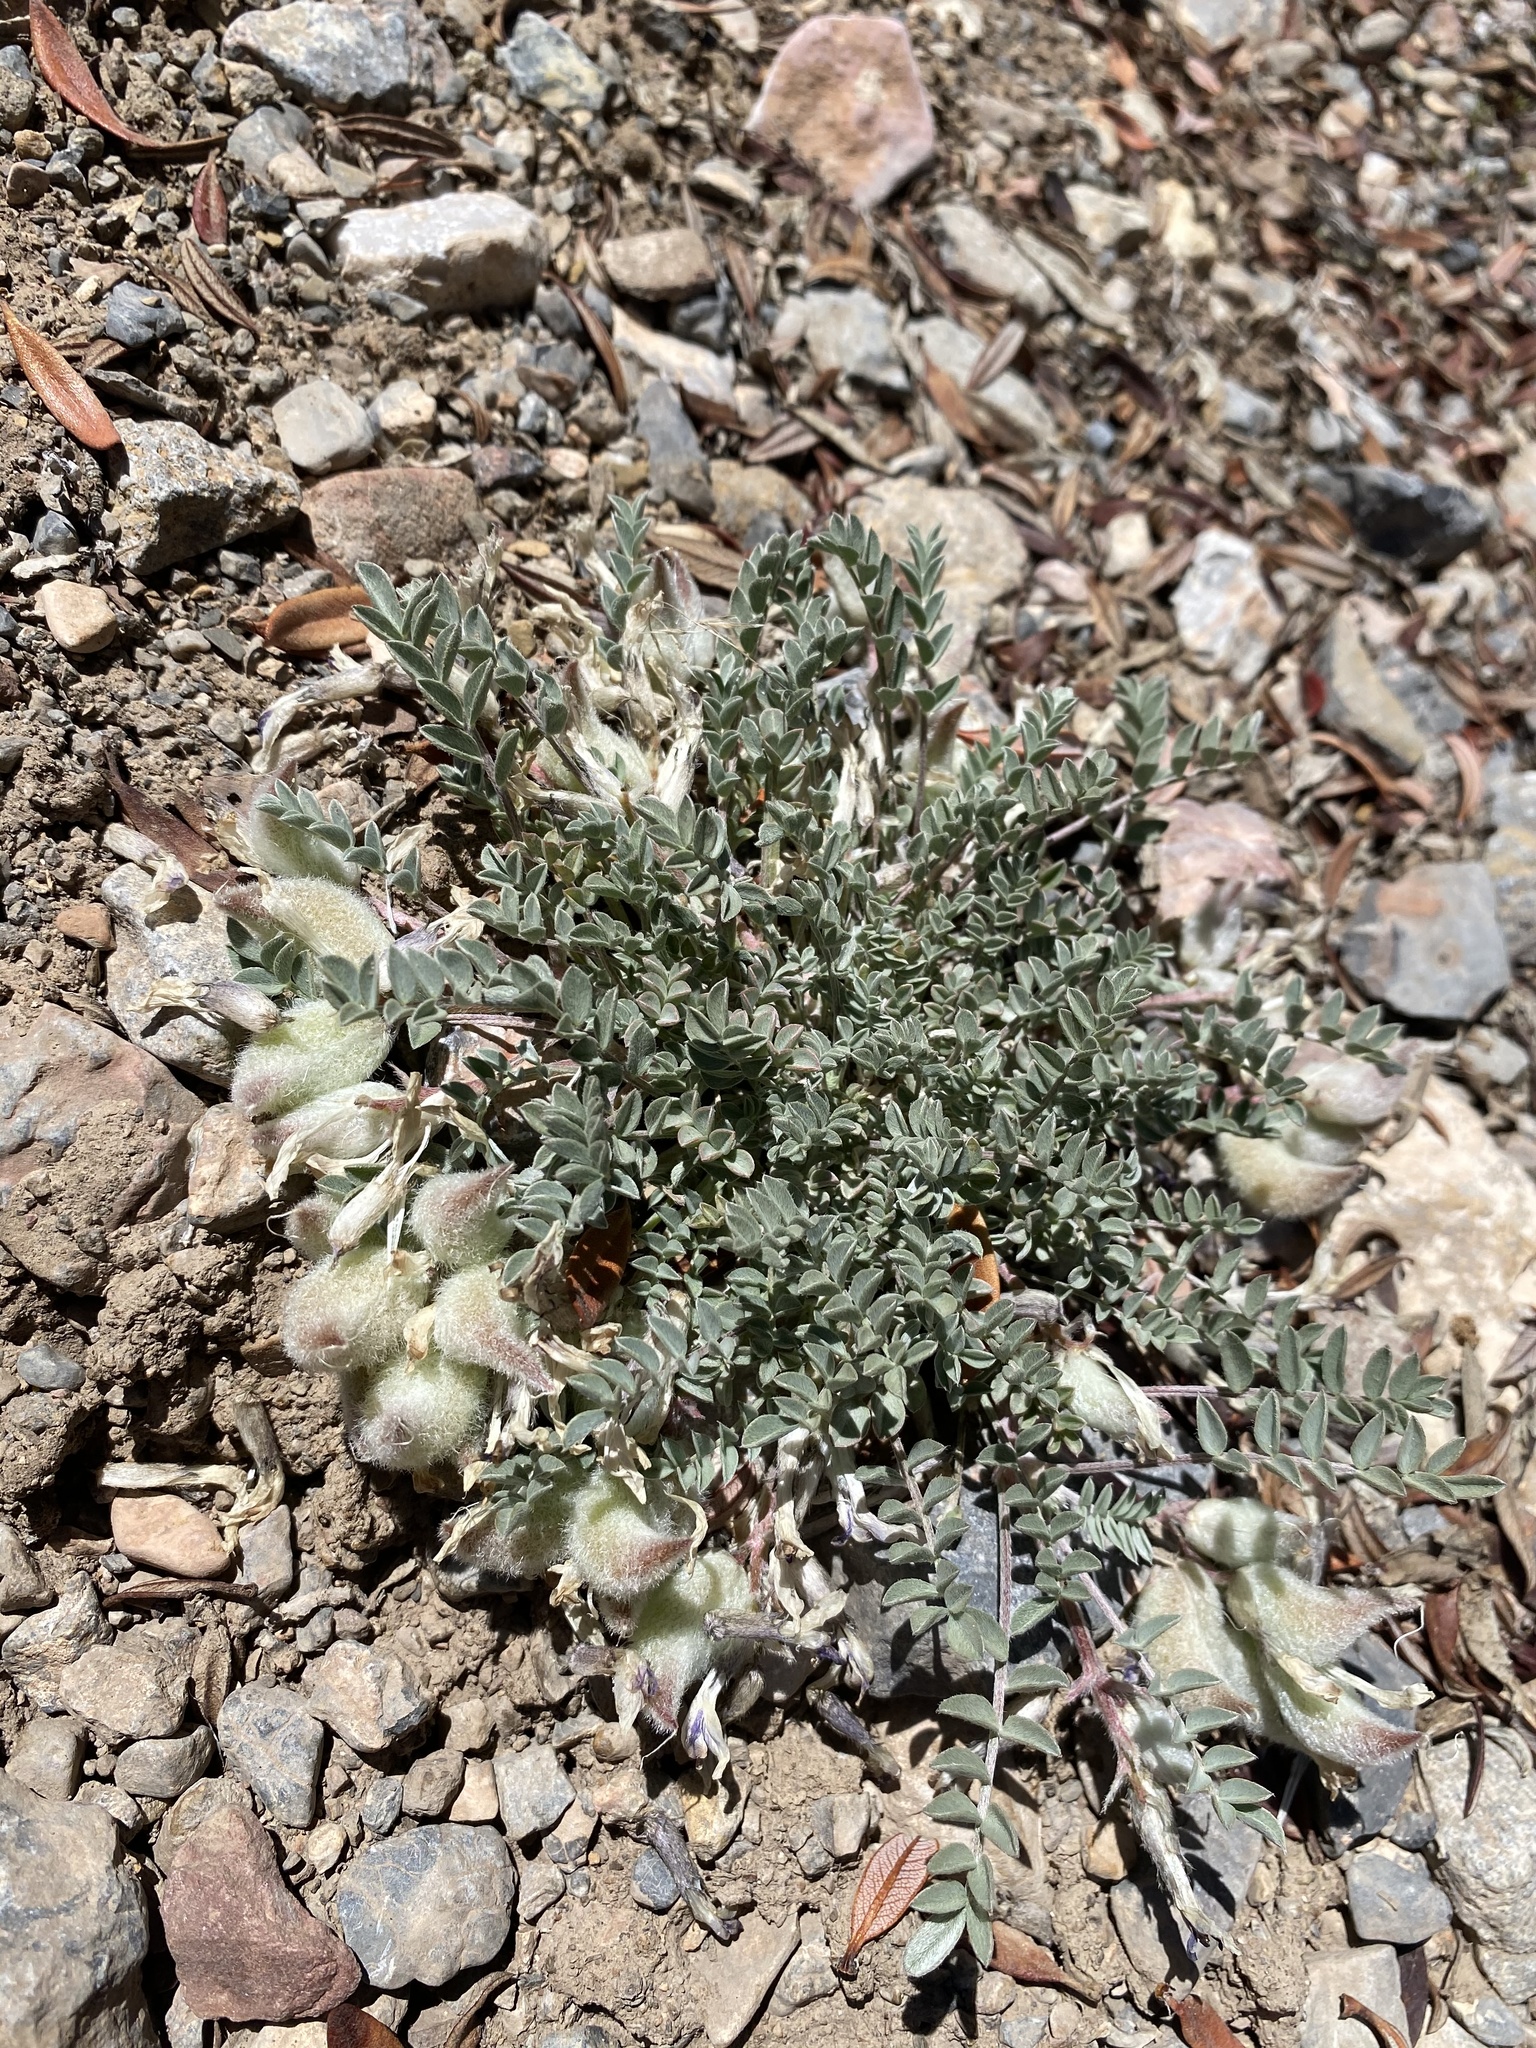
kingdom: Plantae
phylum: Tracheophyta
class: Magnoliopsida
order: Fabales
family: Fabaceae
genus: Astragalus
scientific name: Astragalus piutensis
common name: Sevier milkvetch
